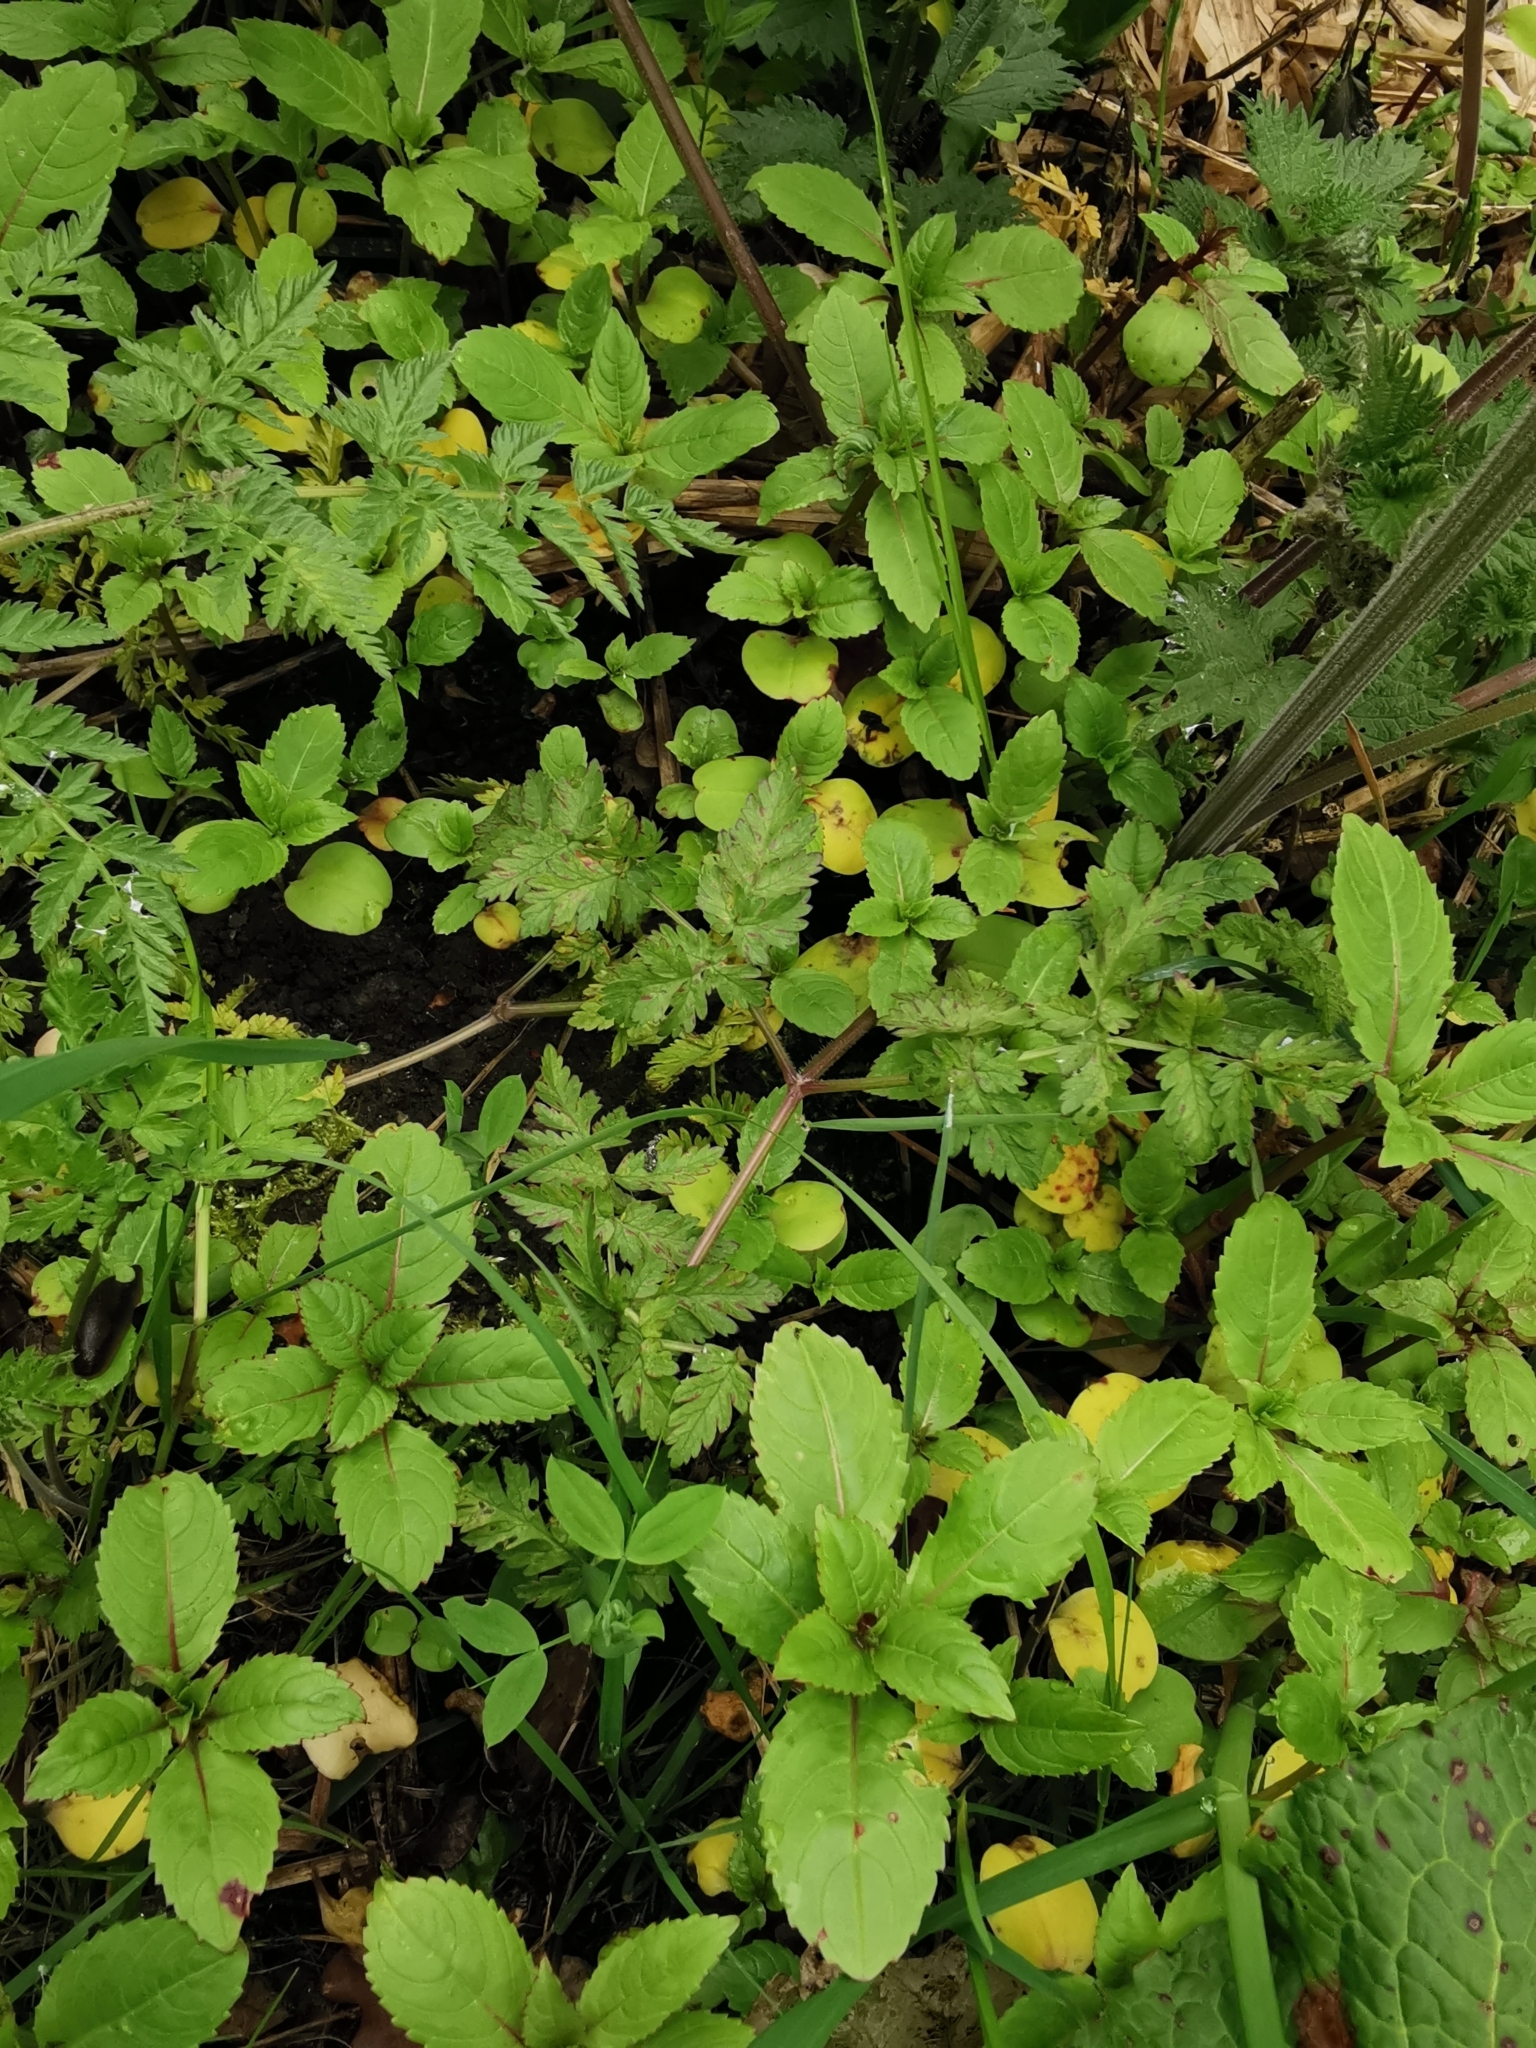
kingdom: Plantae
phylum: Tracheophyta
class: Magnoliopsida
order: Ericales
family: Balsaminaceae
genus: Impatiens
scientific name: Impatiens glandulifera
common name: Himalayan balsam
